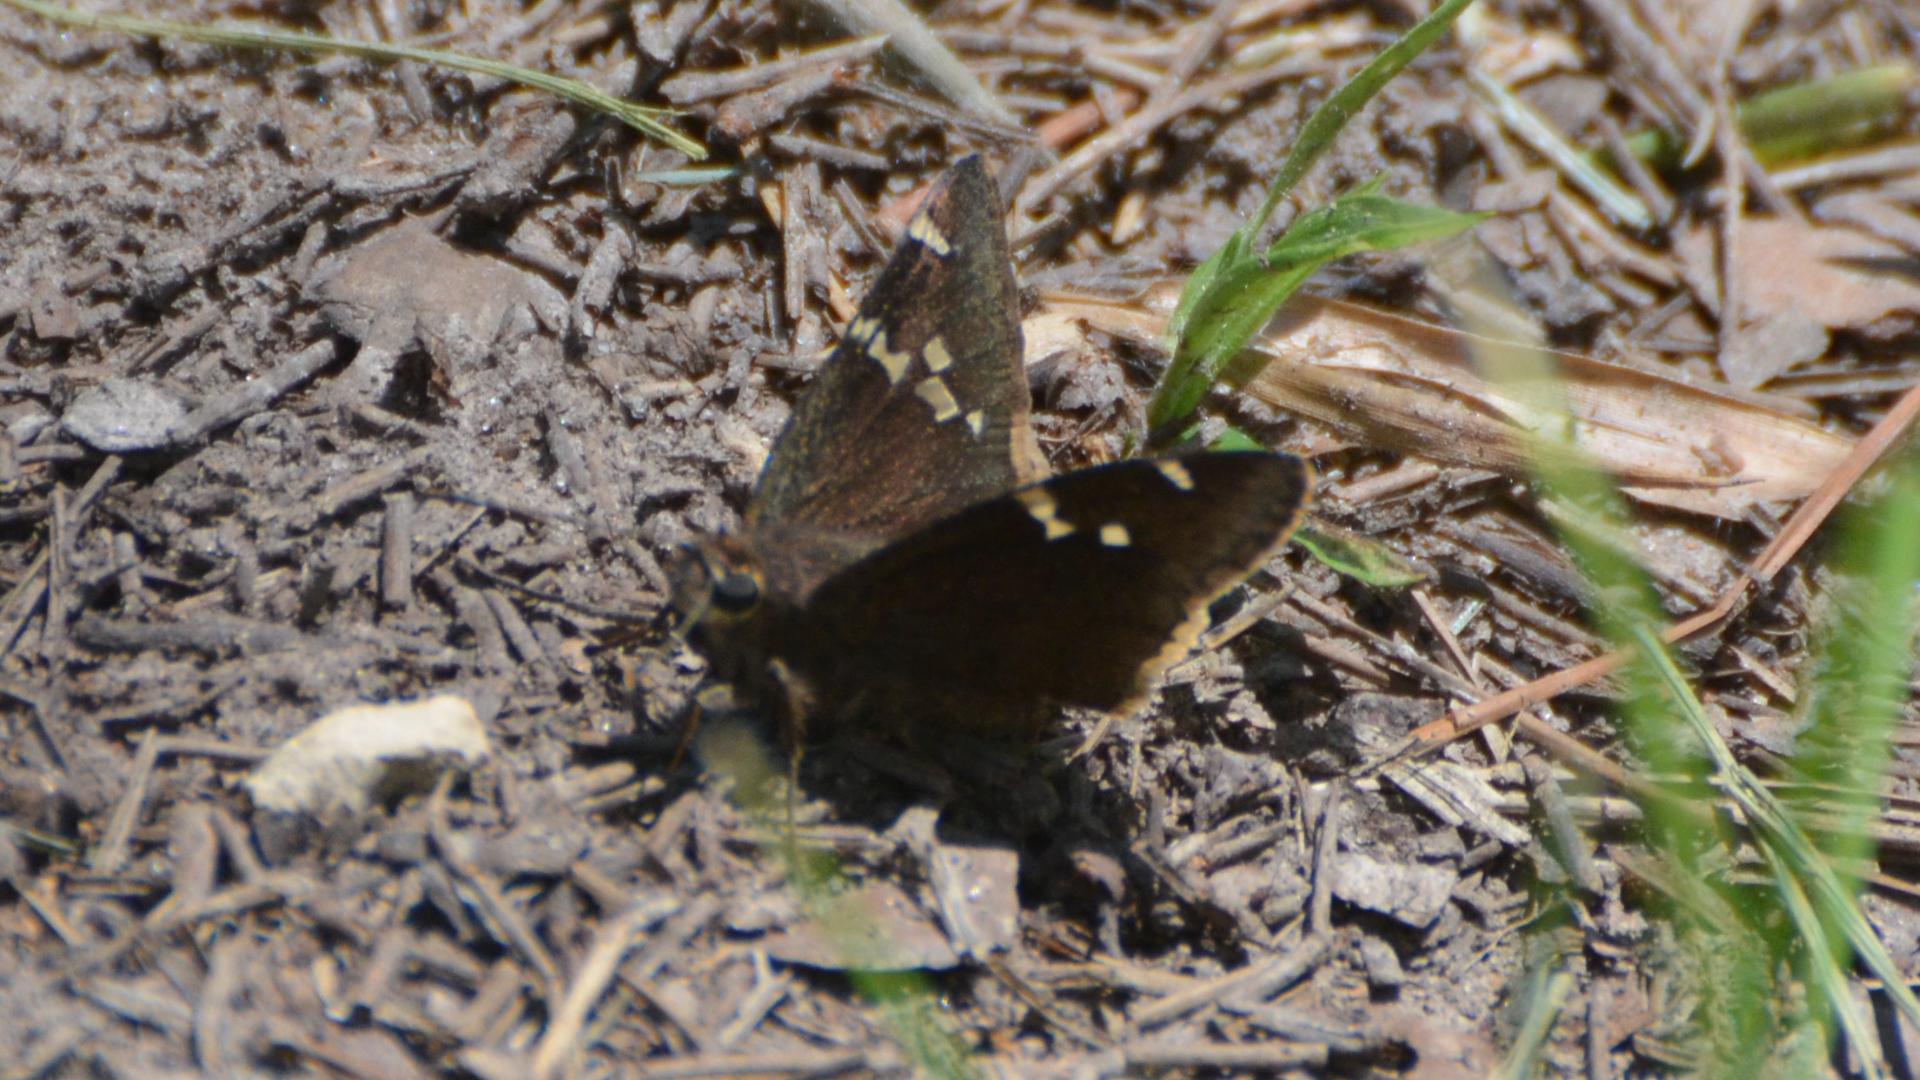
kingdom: Animalia
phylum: Arthropoda
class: Insecta
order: Lepidoptera
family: Hesperiidae
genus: Thorybes
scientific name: Thorybes daunus
